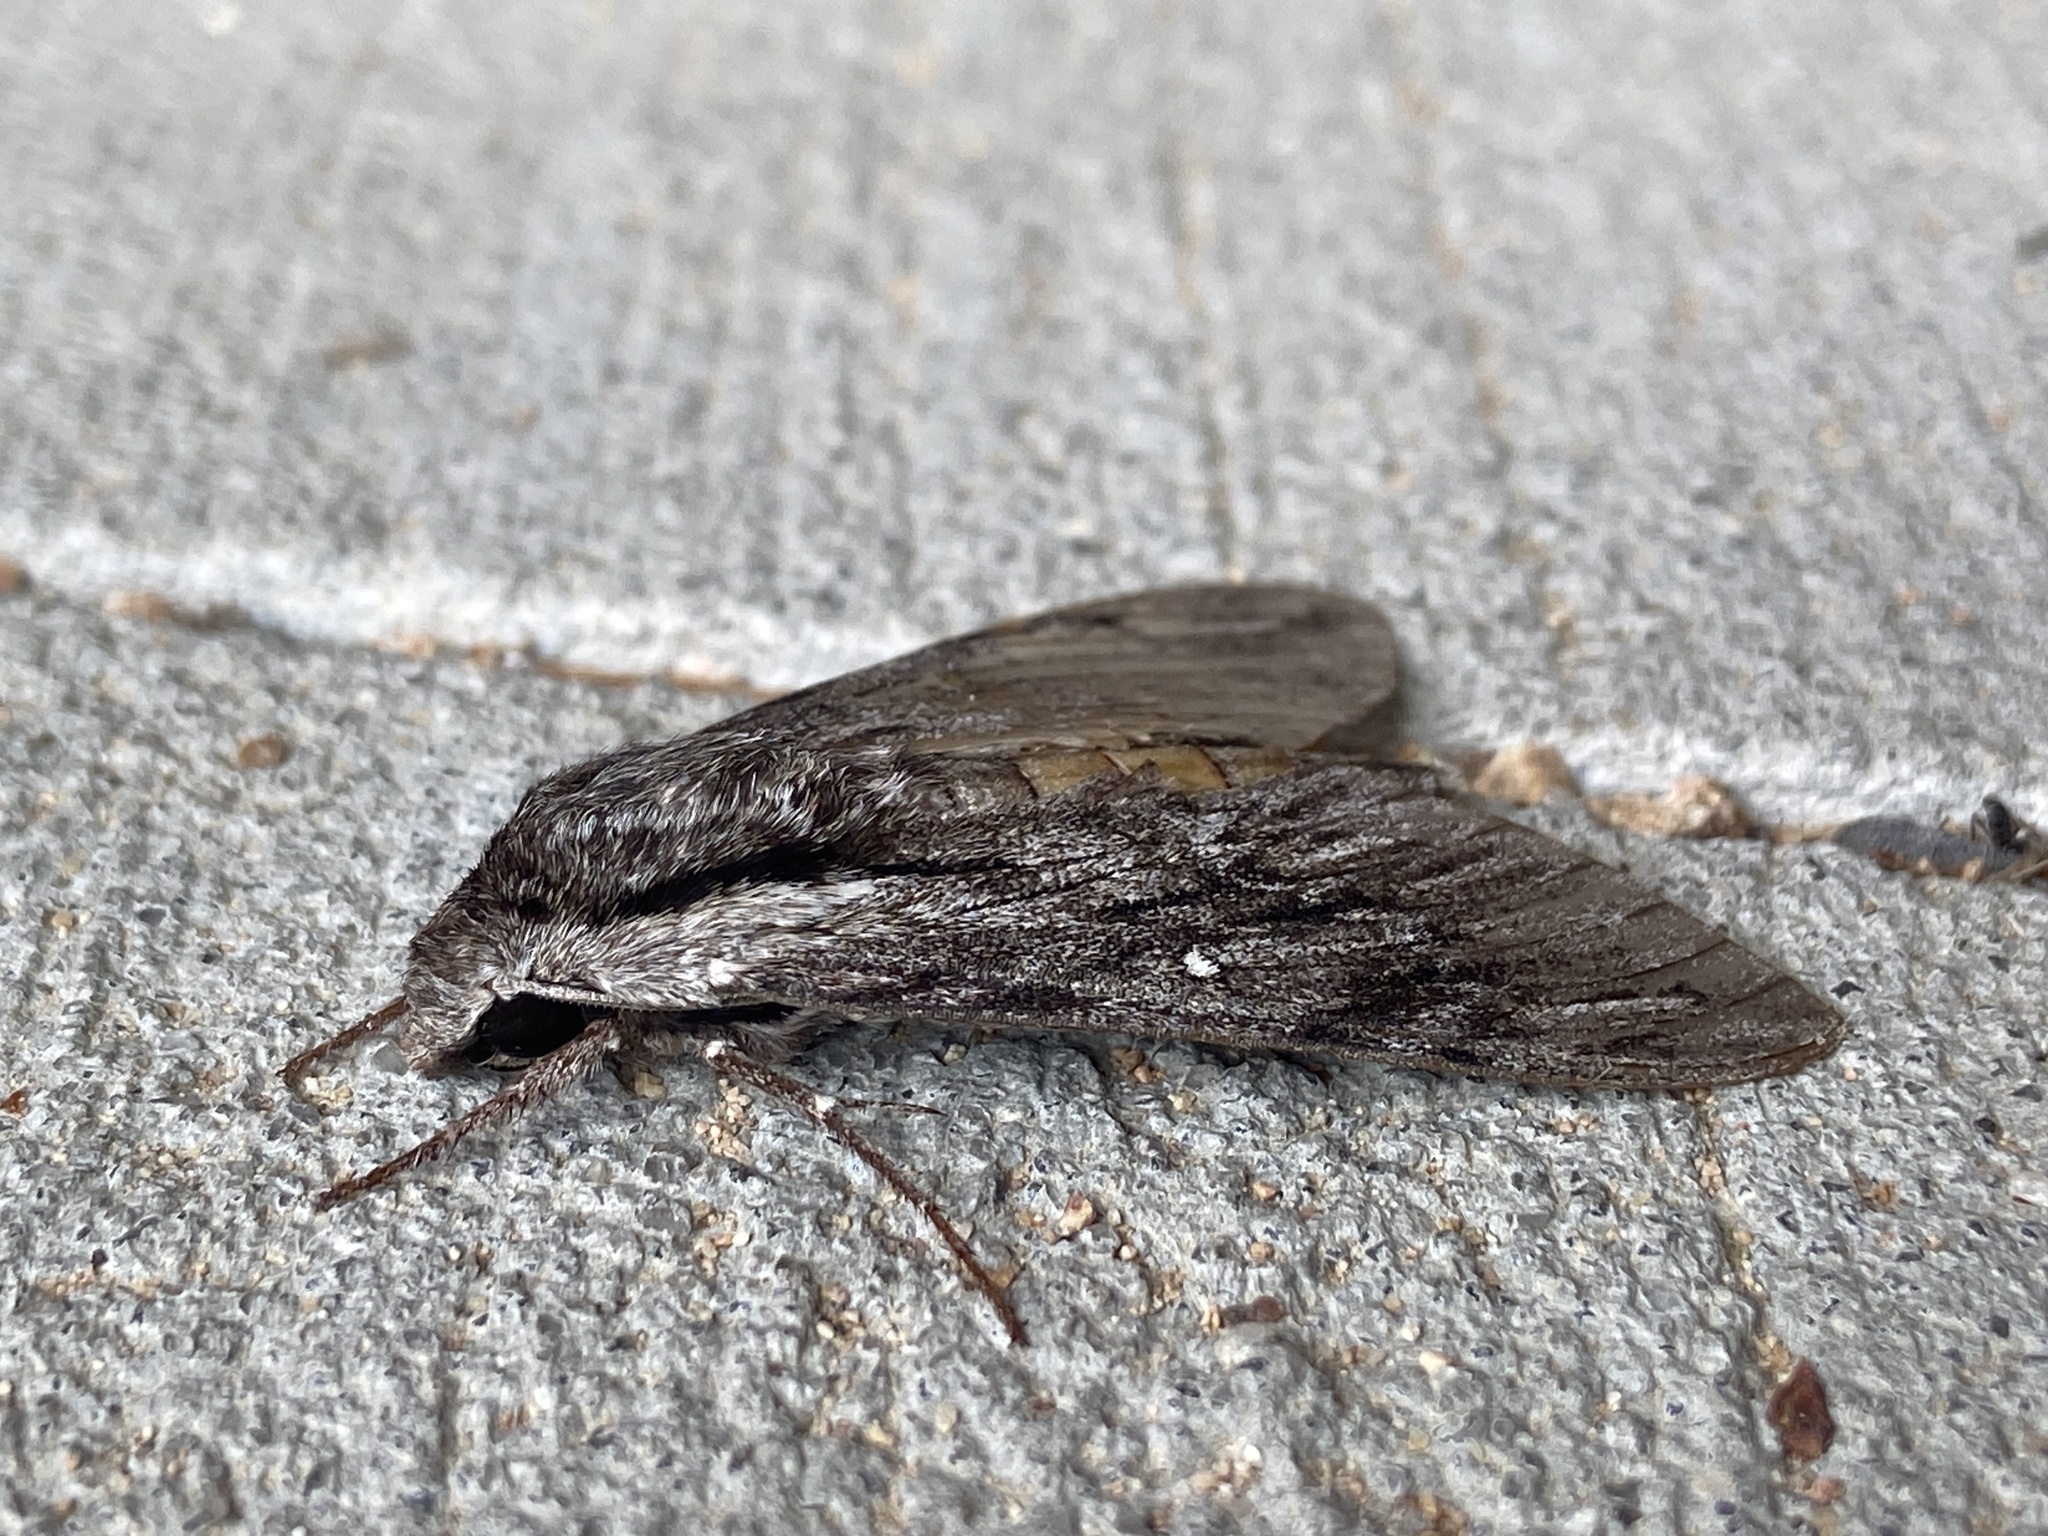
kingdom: Animalia
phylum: Arthropoda
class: Insecta
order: Lepidoptera
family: Sphingidae
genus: Paratrea
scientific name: Paratrea plebeja
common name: Plebian sphinx
